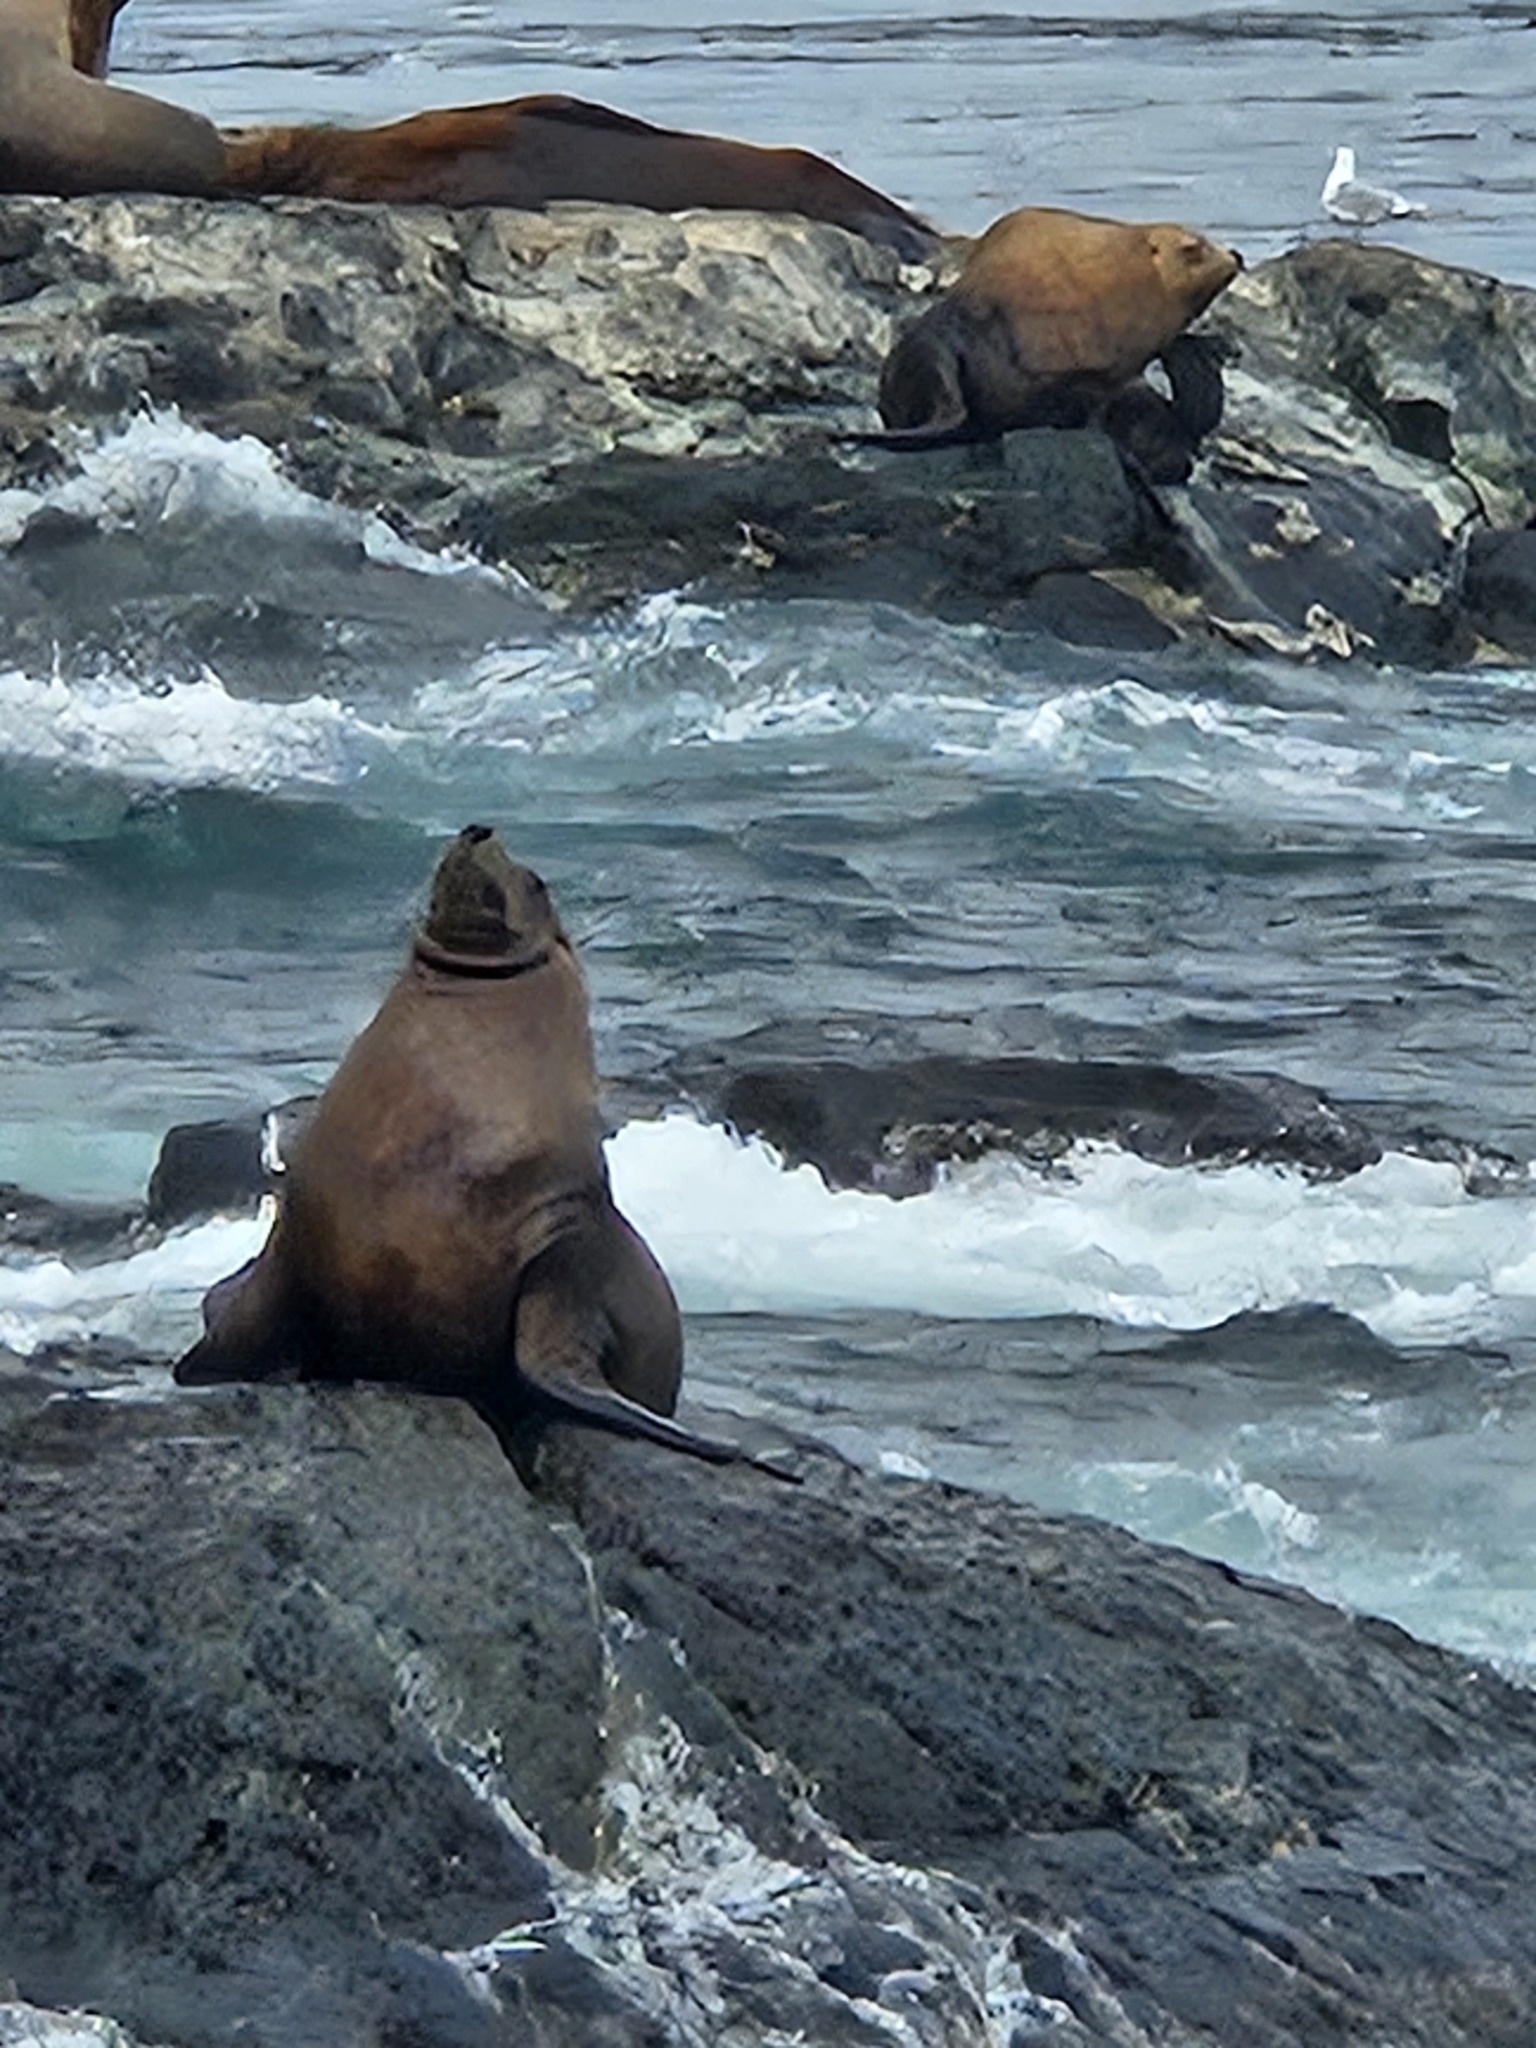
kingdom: Animalia
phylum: Chordata
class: Mammalia
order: Carnivora
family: Otariidae
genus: Eumetopias
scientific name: Eumetopias jubatus
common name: Steller sea lion
